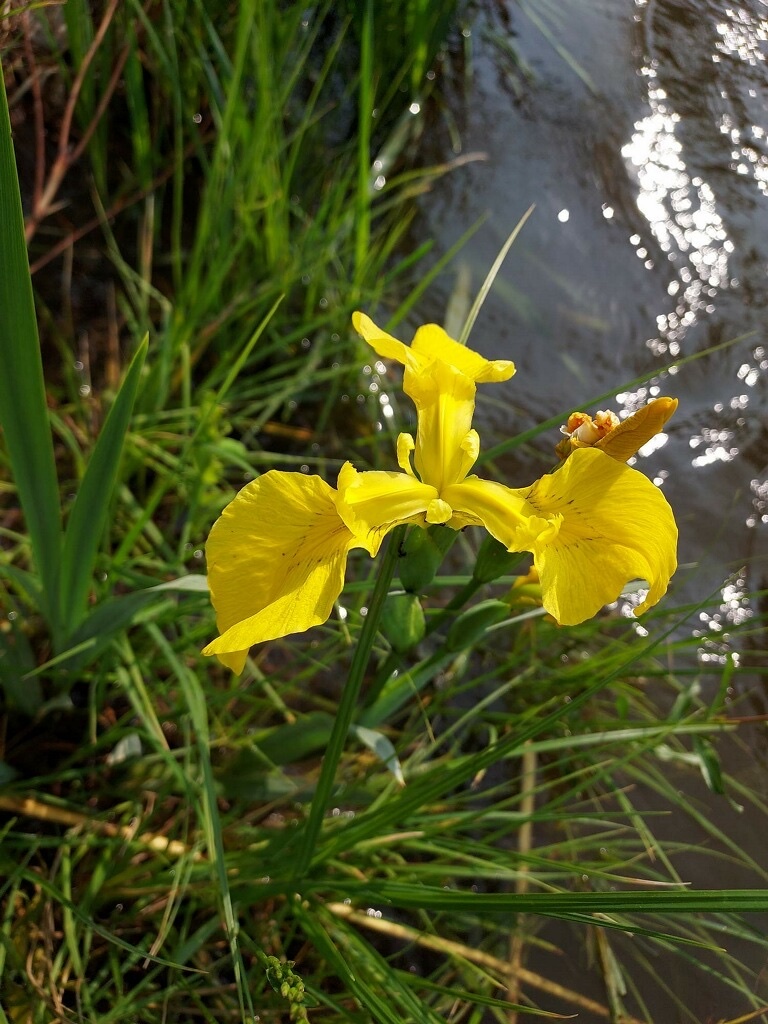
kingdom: Plantae
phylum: Tracheophyta
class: Liliopsida
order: Asparagales
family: Iridaceae
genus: Iris
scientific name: Iris pseudacorus
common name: Yellow flag
